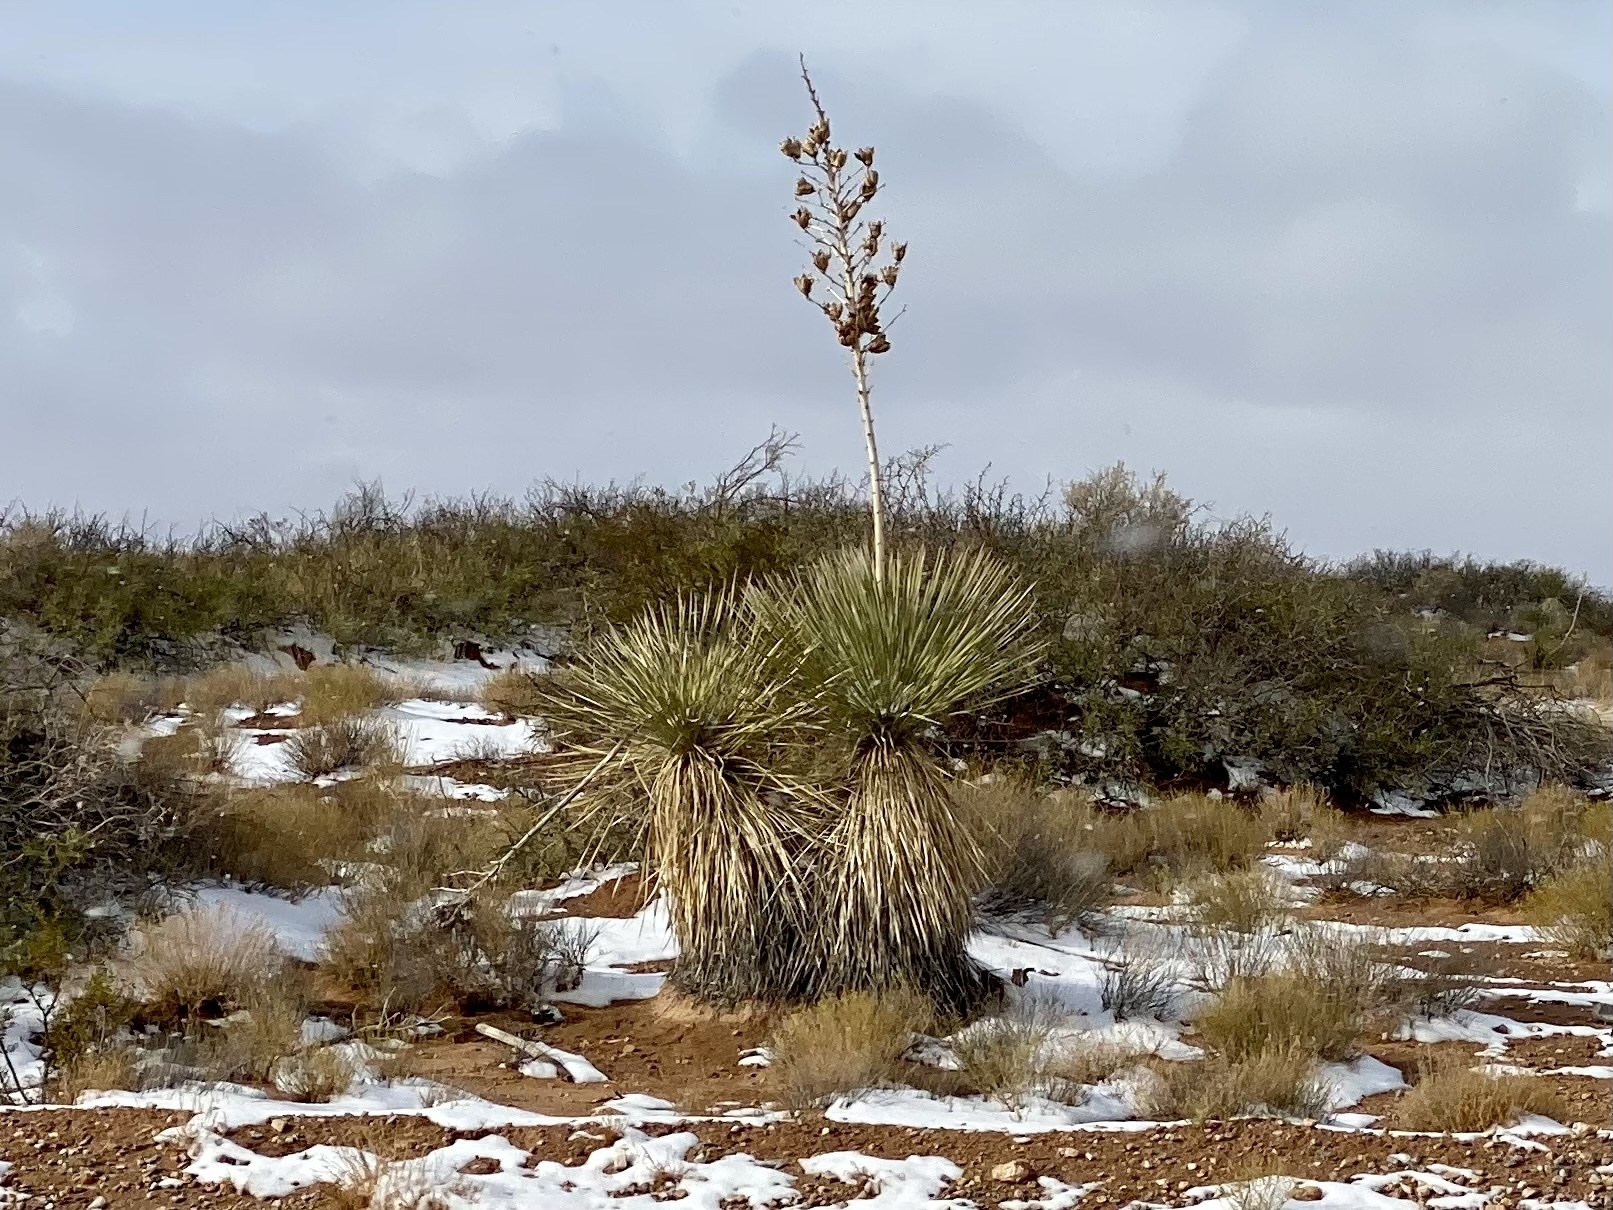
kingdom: Plantae
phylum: Tracheophyta
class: Liliopsida
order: Asparagales
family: Asparagaceae
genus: Yucca
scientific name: Yucca elata
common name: Palmella
